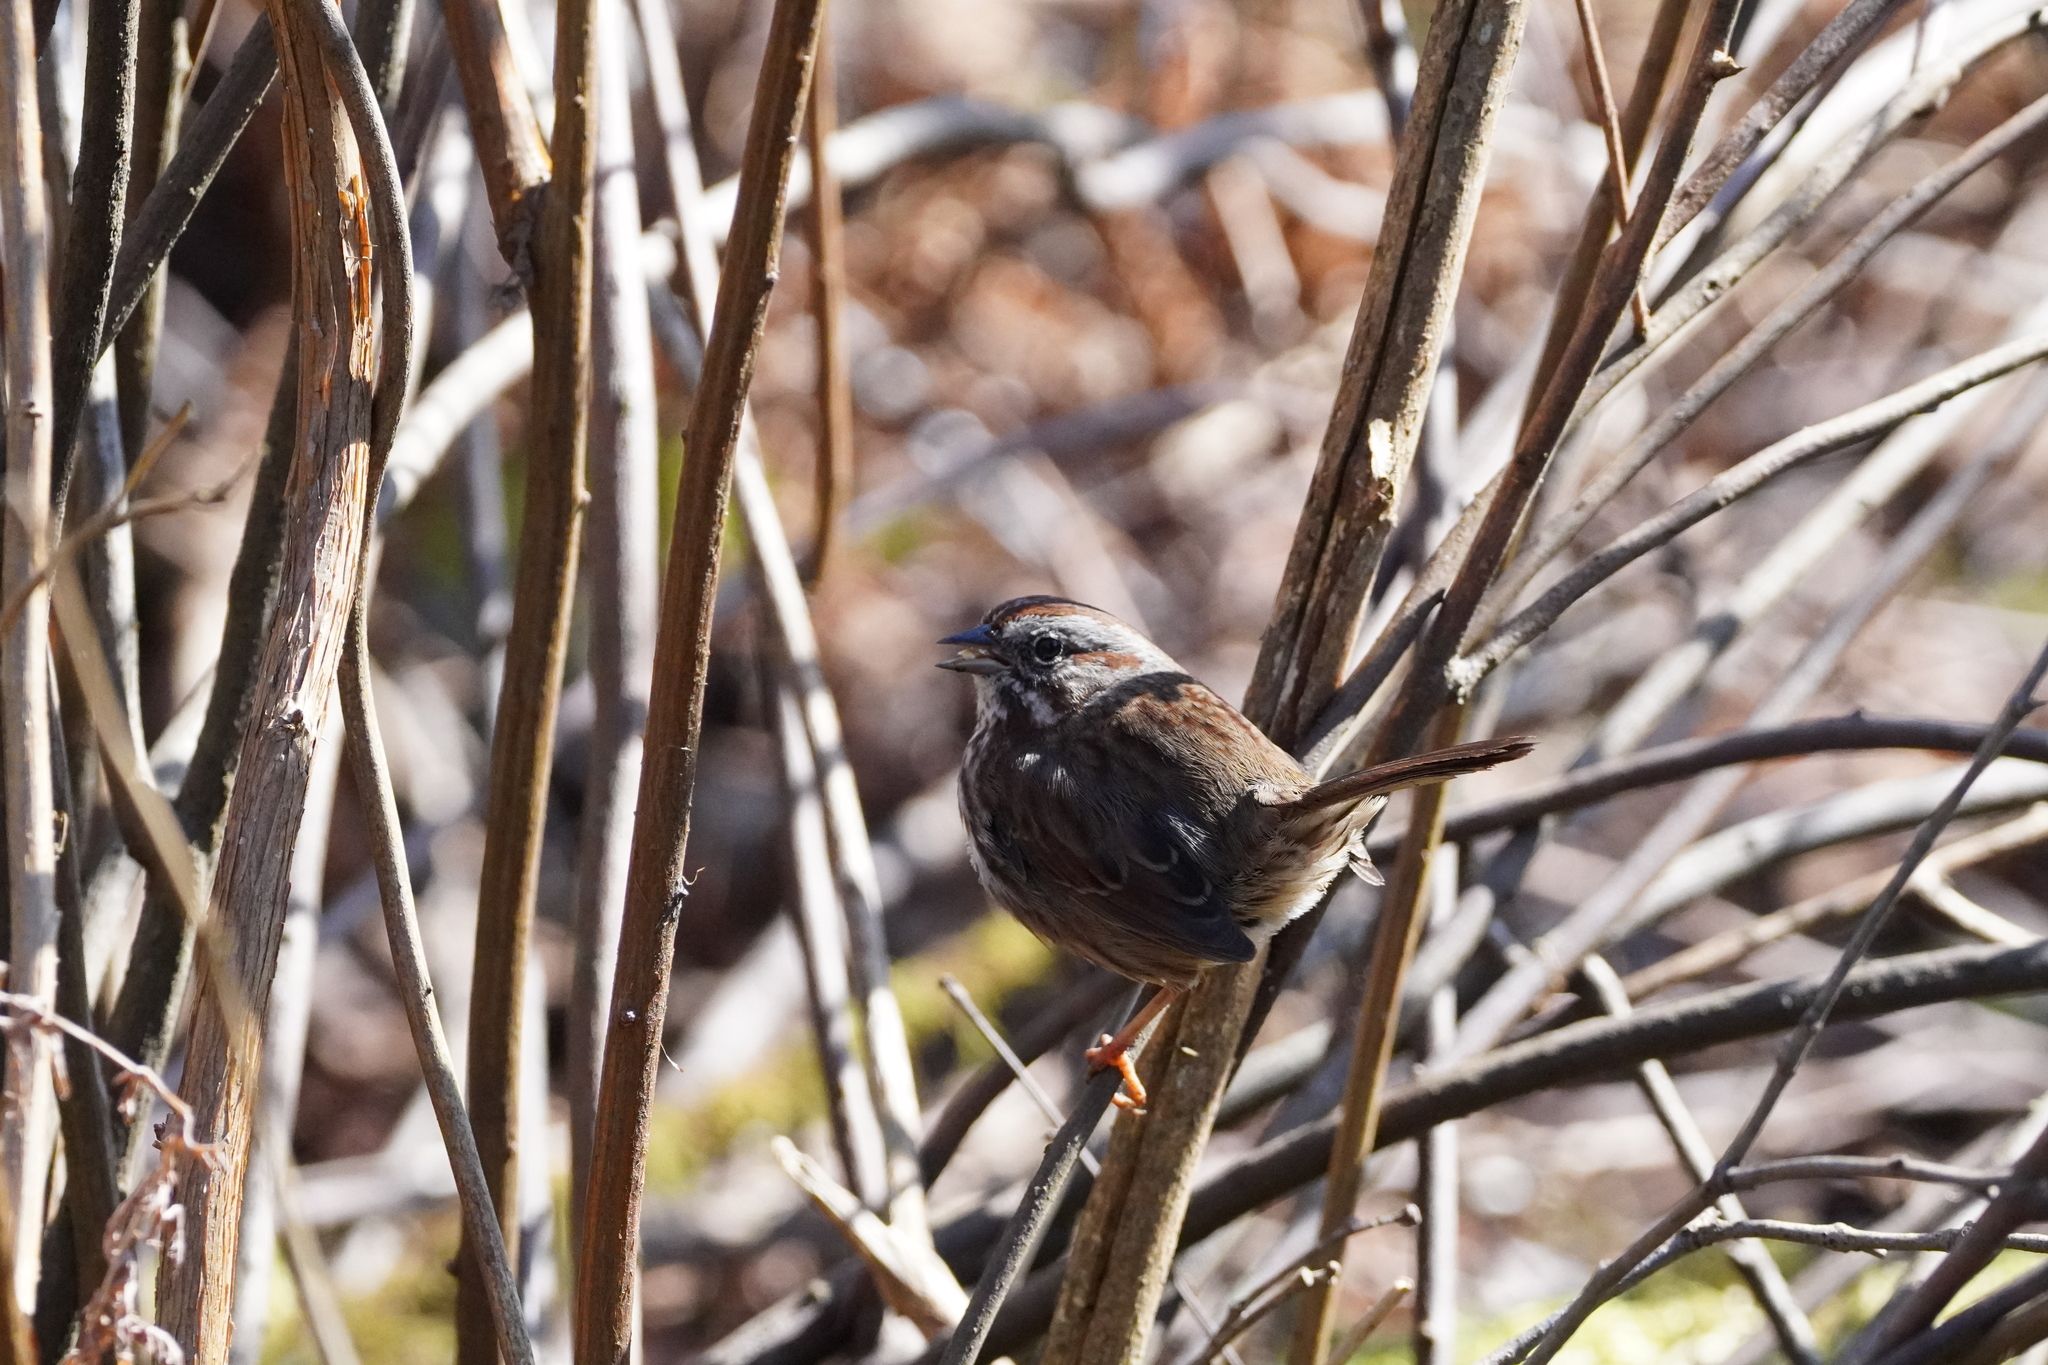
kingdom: Animalia
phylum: Chordata
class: Aves
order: Passeriformes
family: Passerellidae
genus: Melospiza
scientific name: Melospiza melodia
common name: Song sparrow
